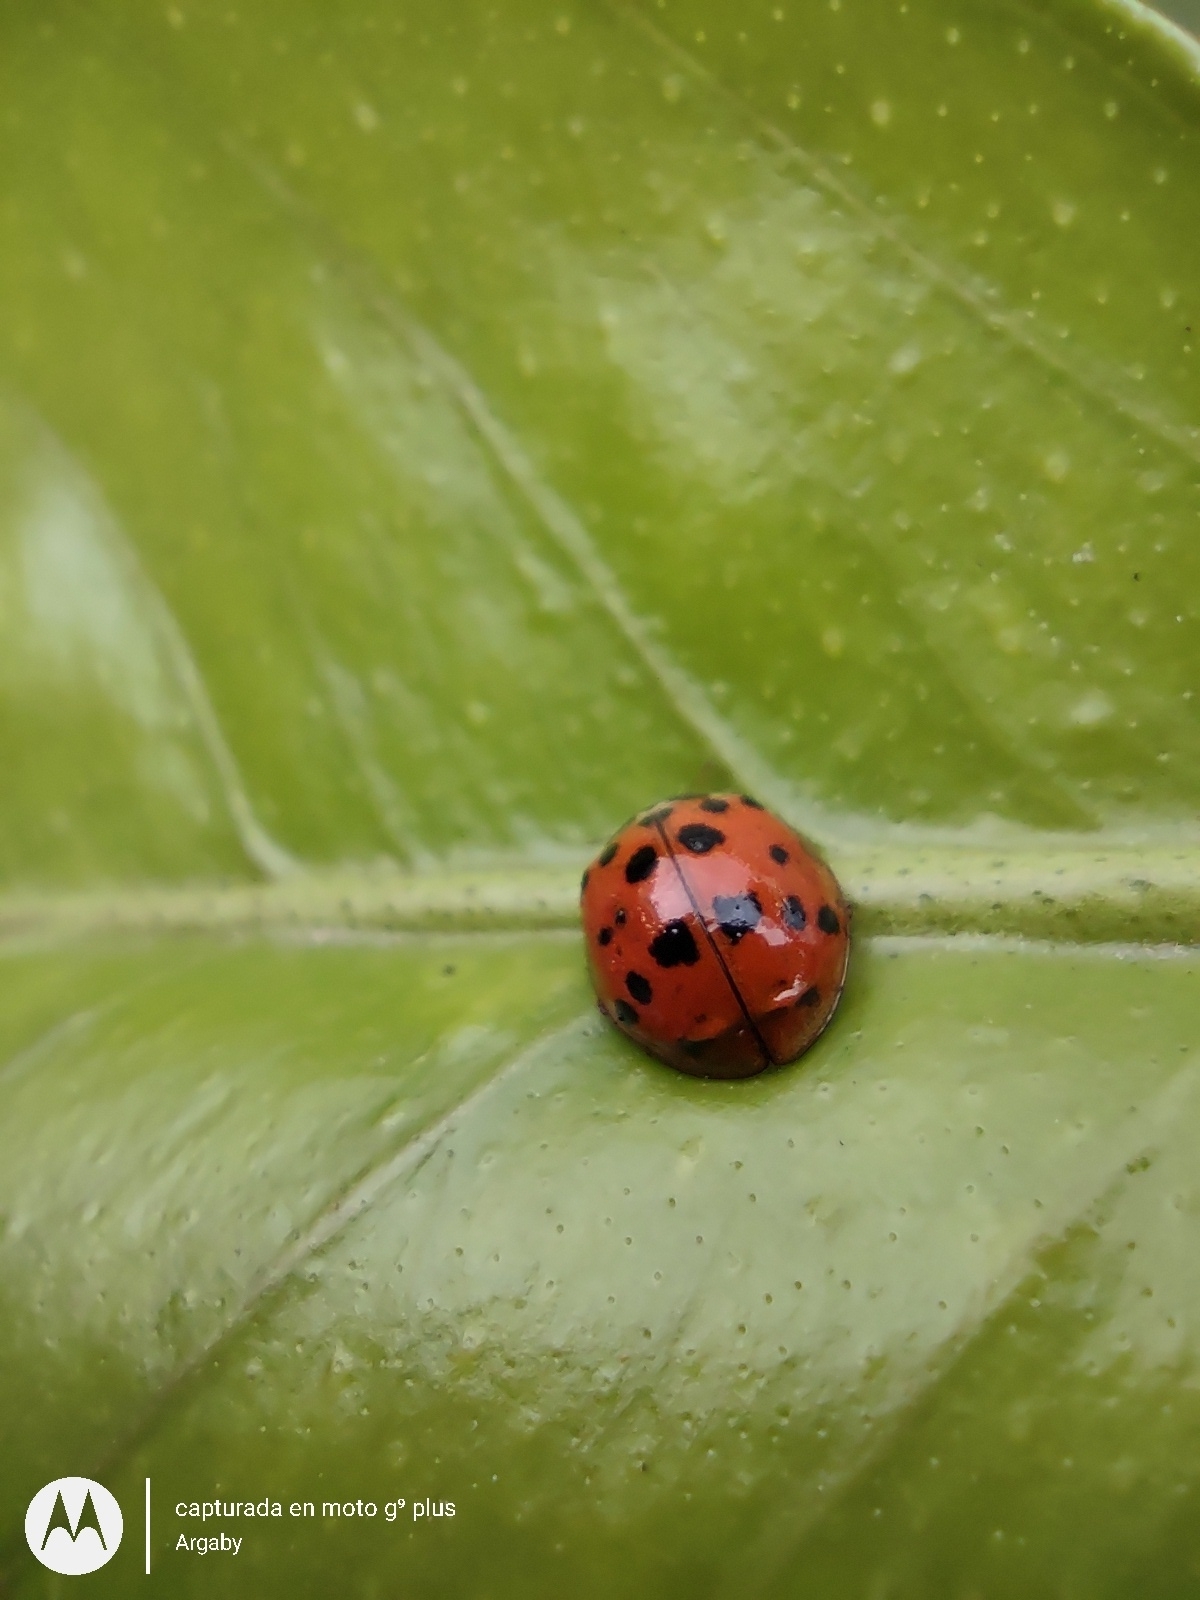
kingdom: Animalia
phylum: Arthropoda
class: Insecta
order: Coleoptera
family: Coccinellidae
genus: Harmonia
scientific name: Harmonia axyridis
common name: Harlequin ladybird
